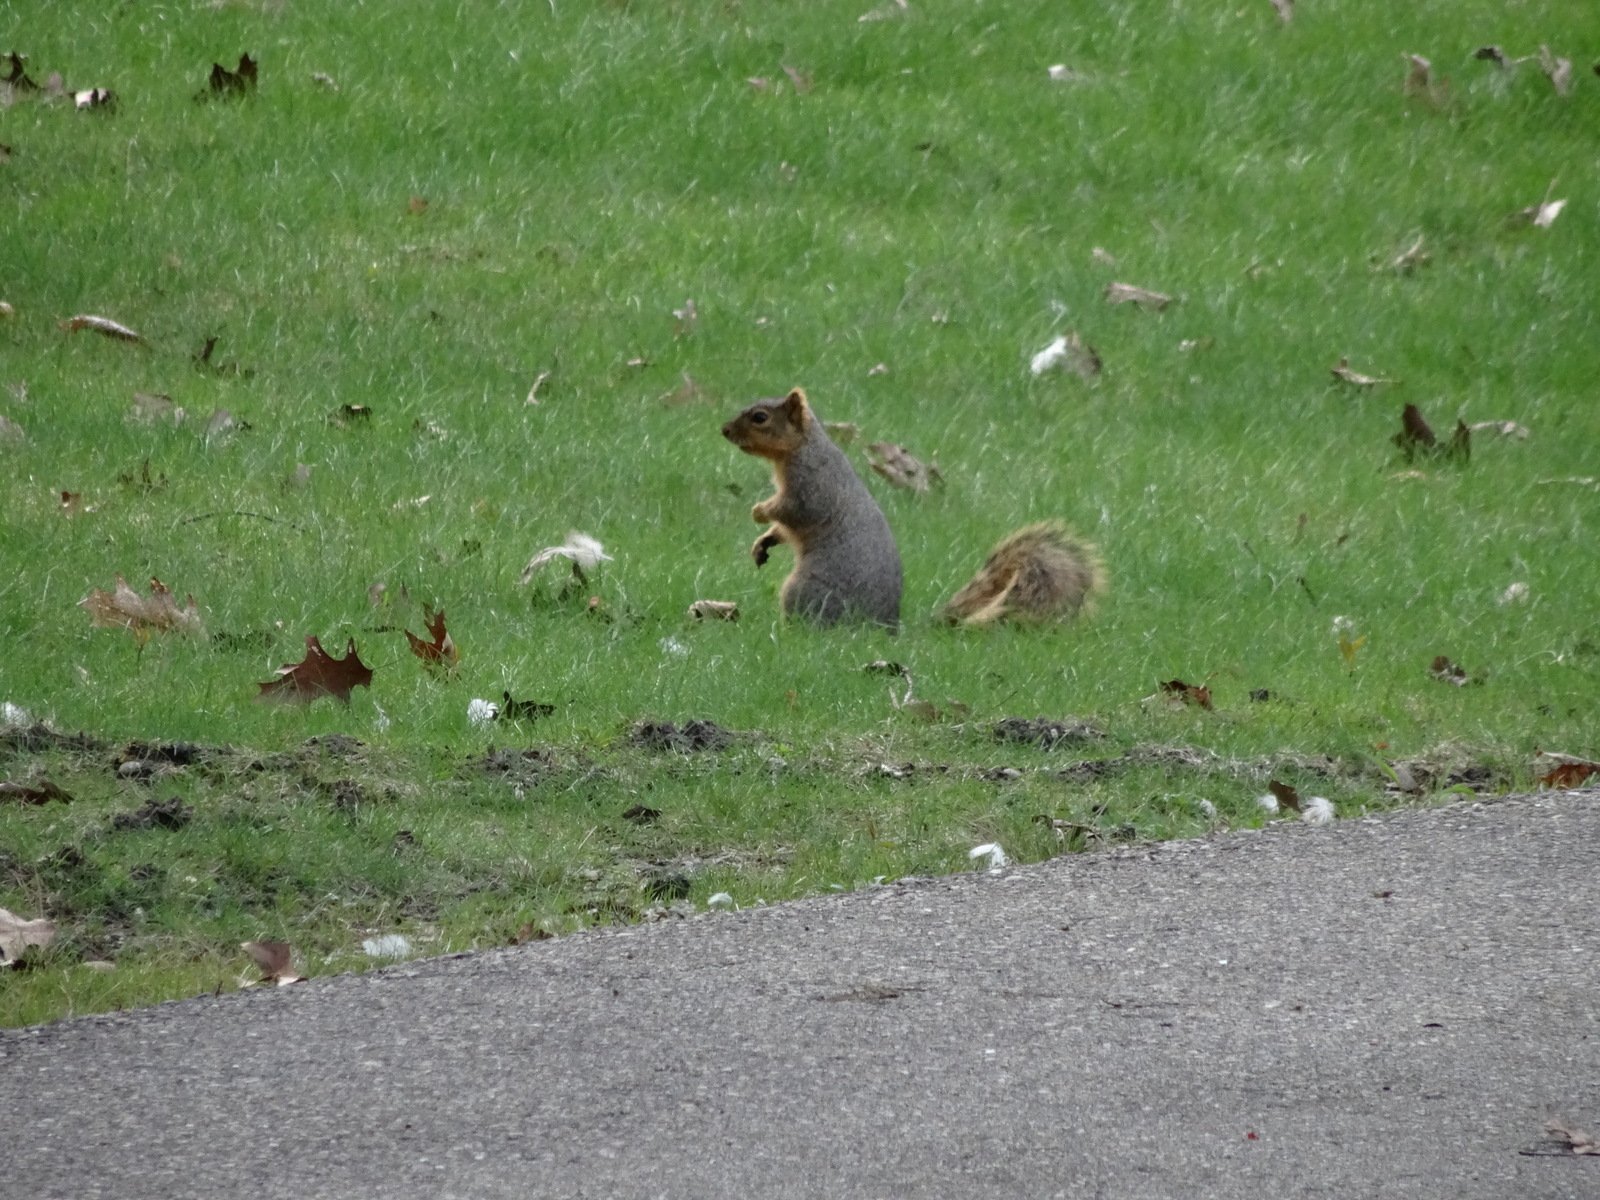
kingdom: Animalia
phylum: Chordata
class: Mammalia
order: Rodentia
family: Sciuridae
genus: Sciurus
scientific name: Sciurus niger
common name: Fox squirrel
